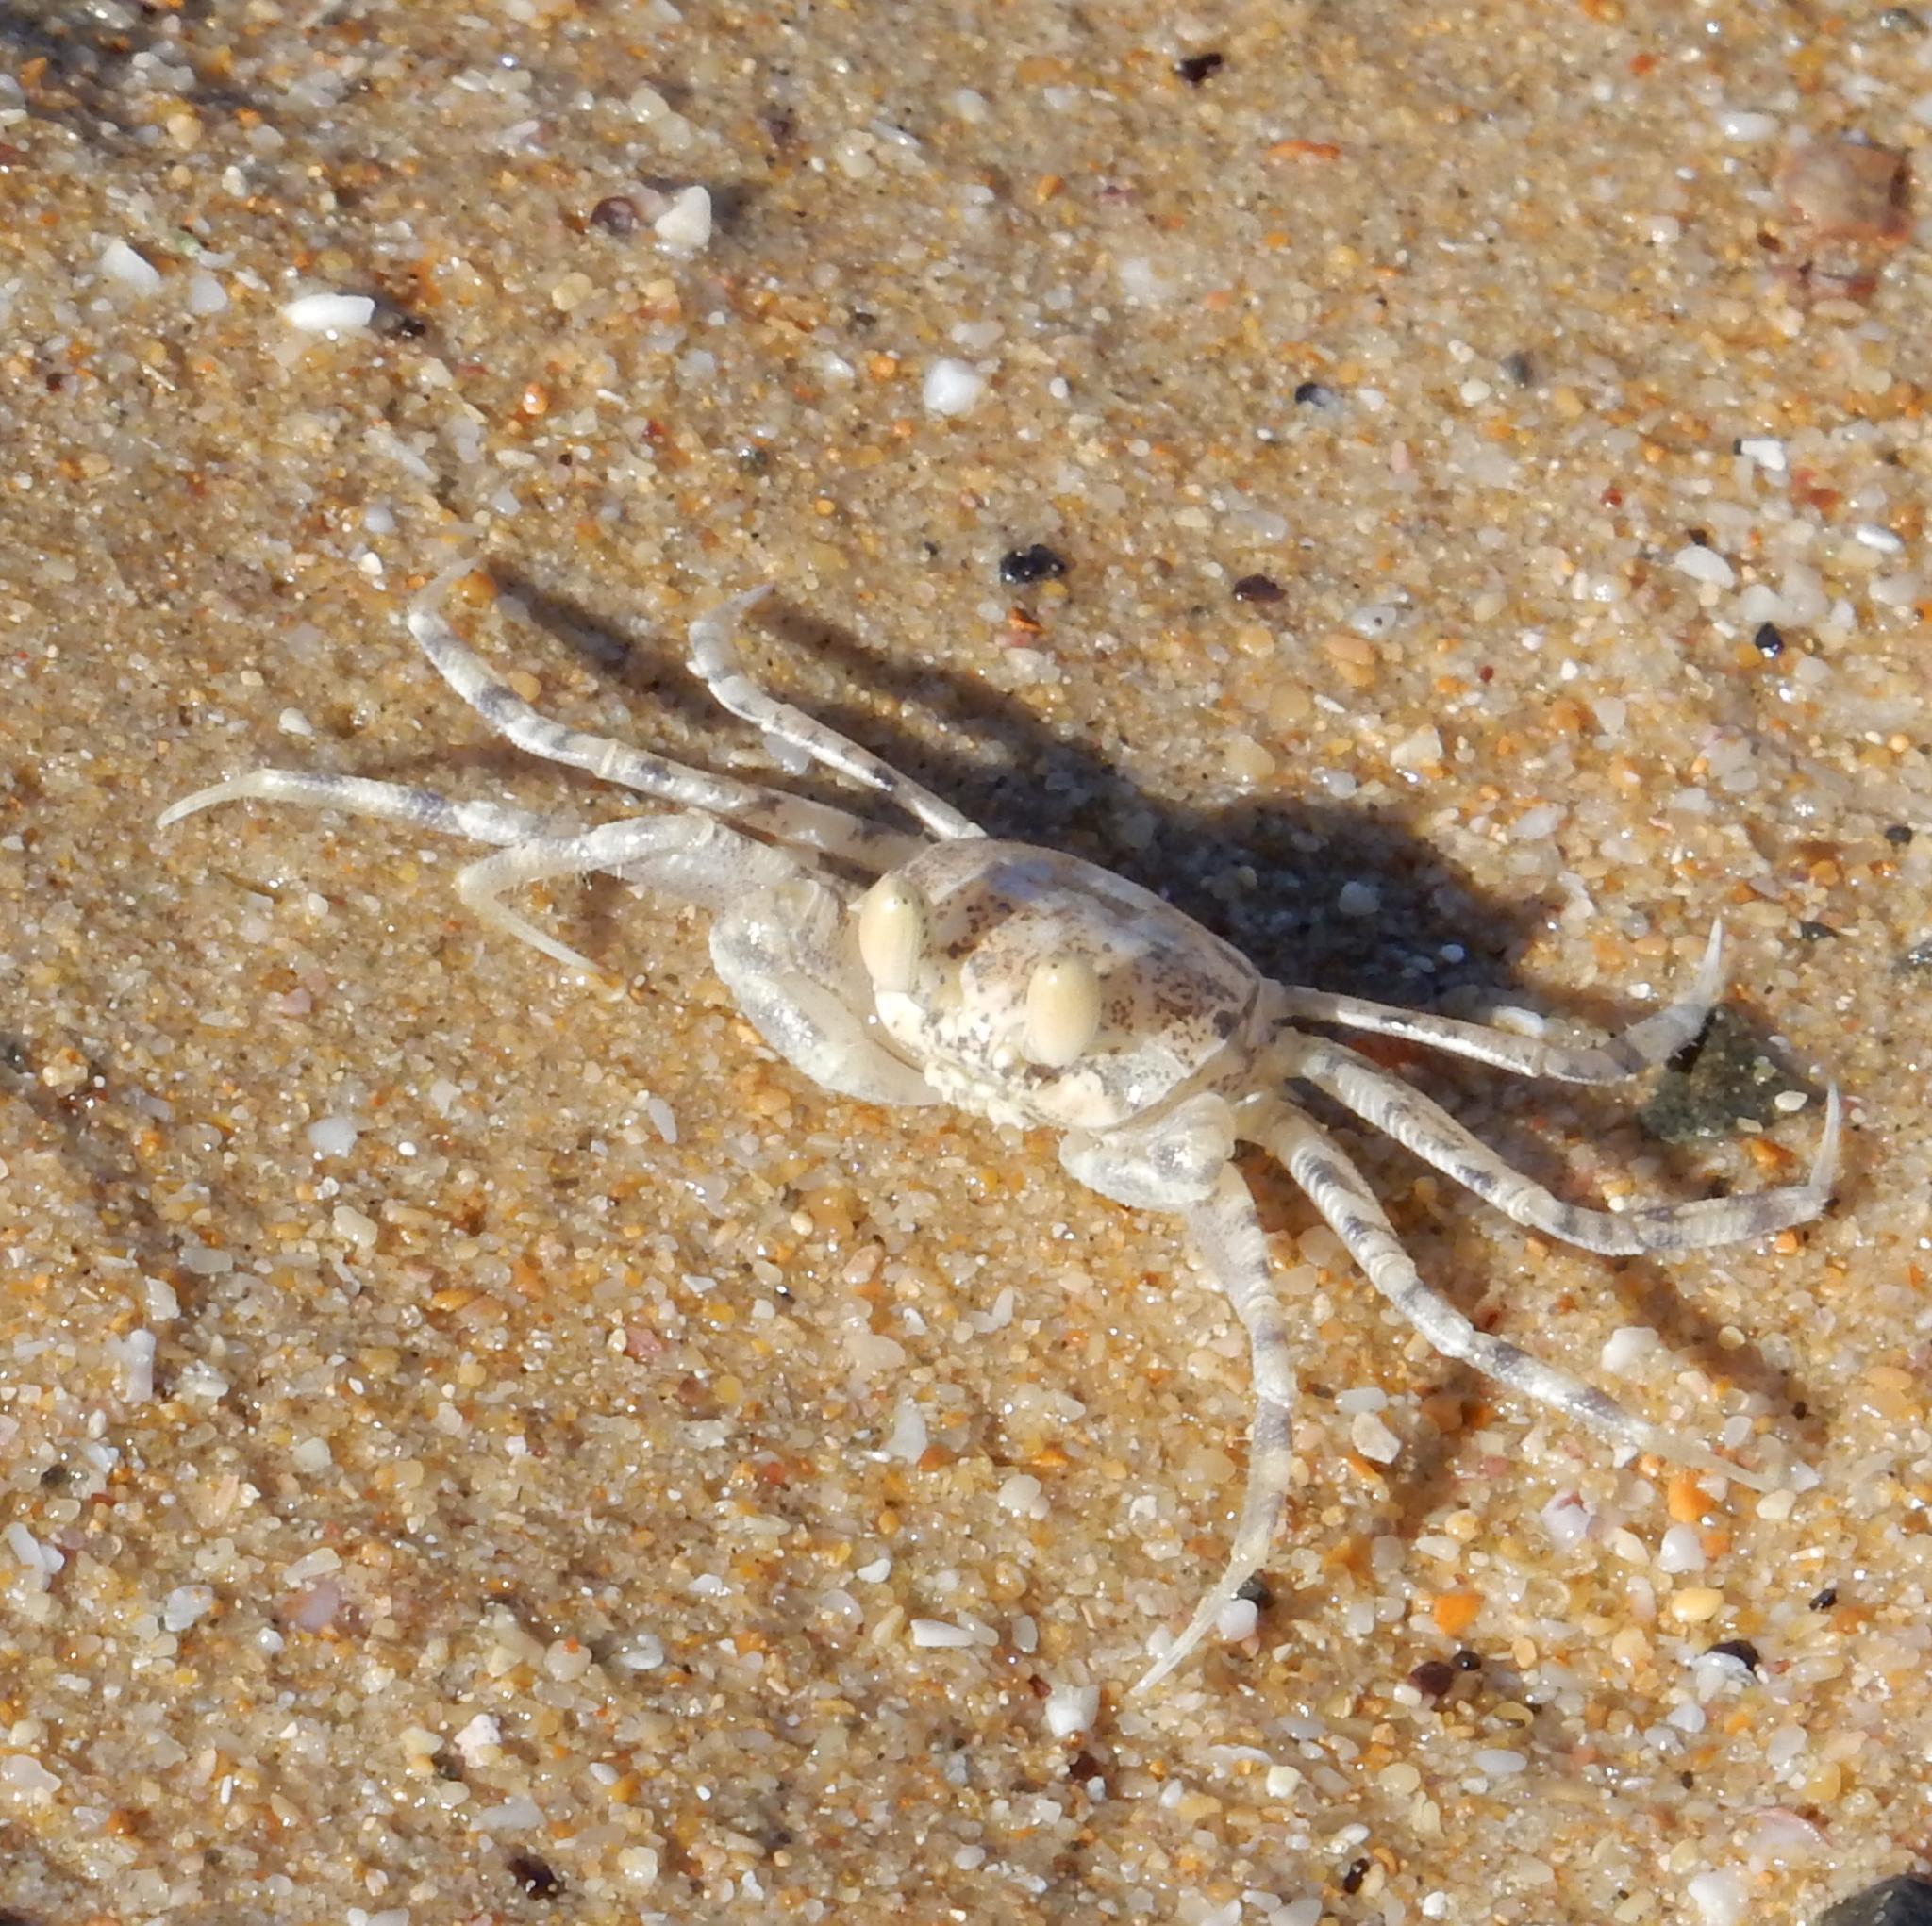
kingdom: Animalia
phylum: Arthropoda
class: Malacostraca
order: Decapoda
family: Ocypodidae
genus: Ocypode
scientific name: Ocypode
